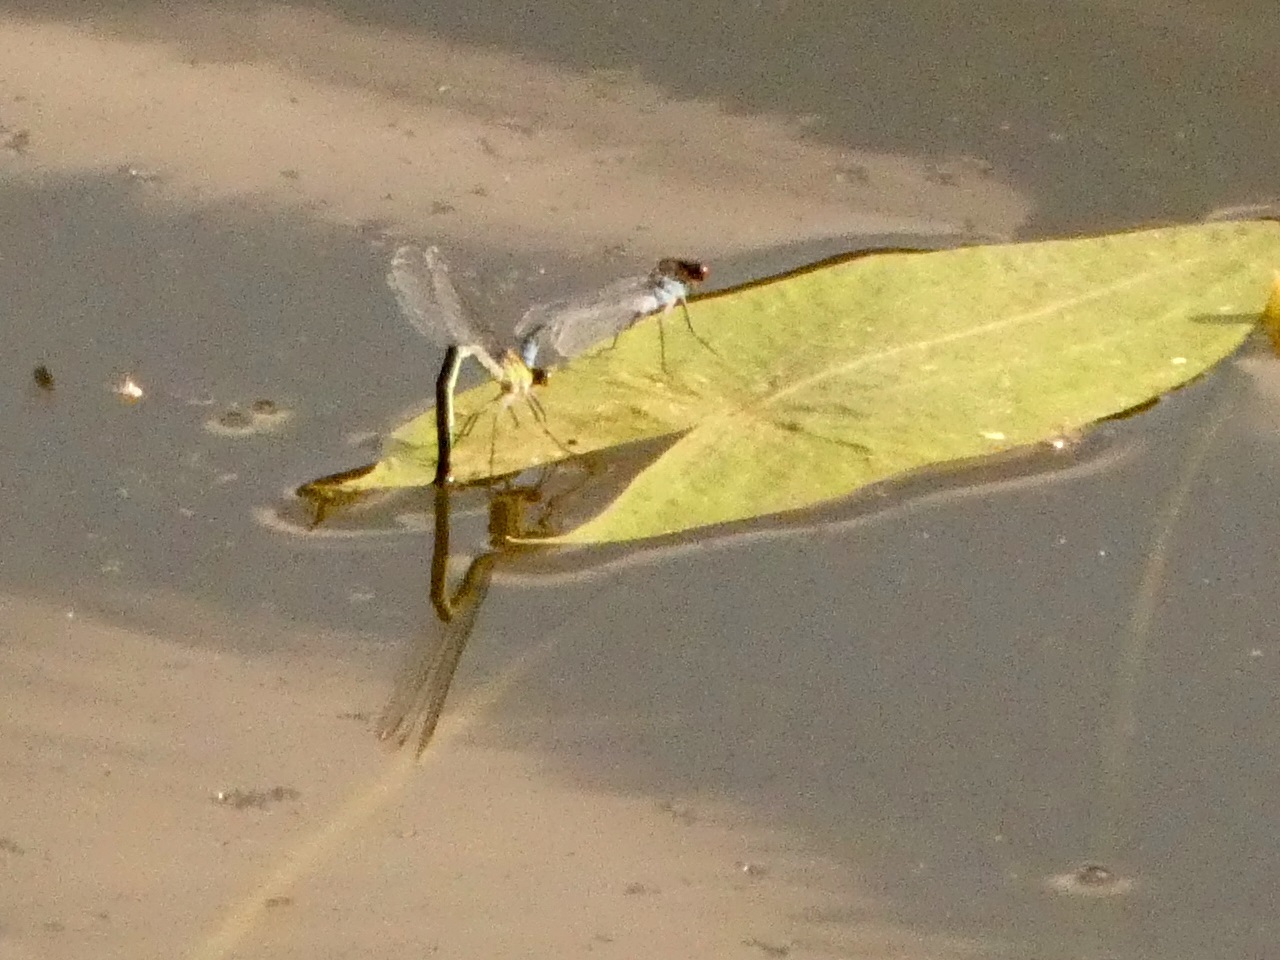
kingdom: Animalia
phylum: Arthropoda
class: Insecta
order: Odonata
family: Coenagrionidae
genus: Erythromma
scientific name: Erythromma najas
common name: Red-eyed damselfly
